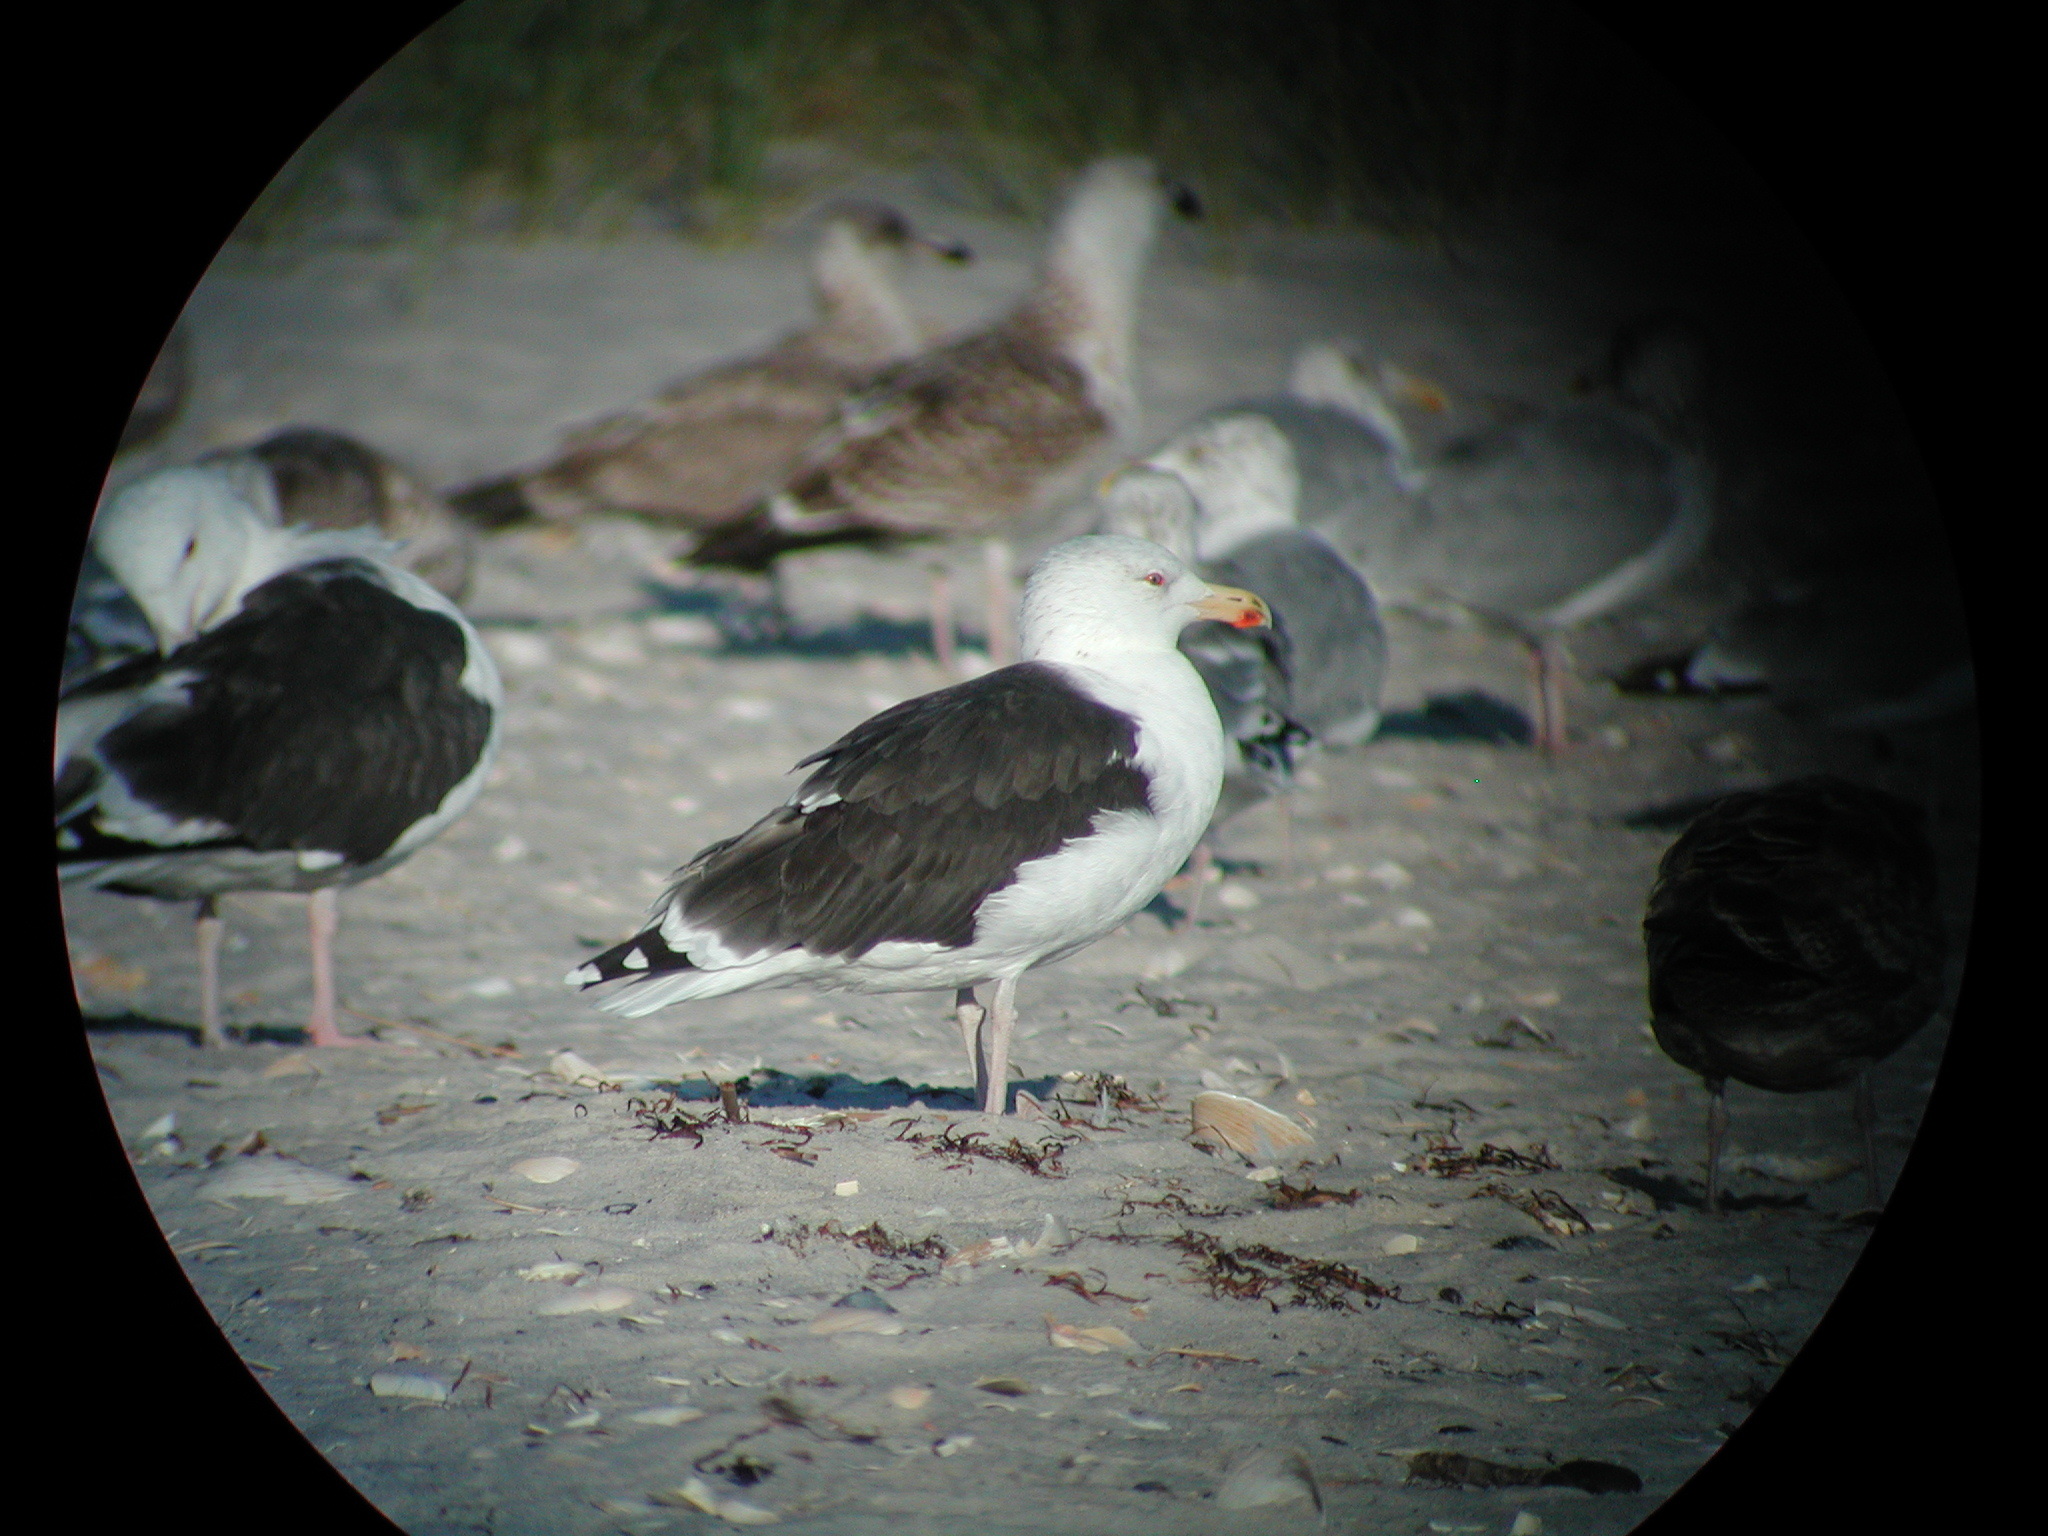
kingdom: Animalia
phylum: Chordata
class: Aves
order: Charadriiformes
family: Laridae
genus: Larus
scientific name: Larus marinus
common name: Great black-backed gull
